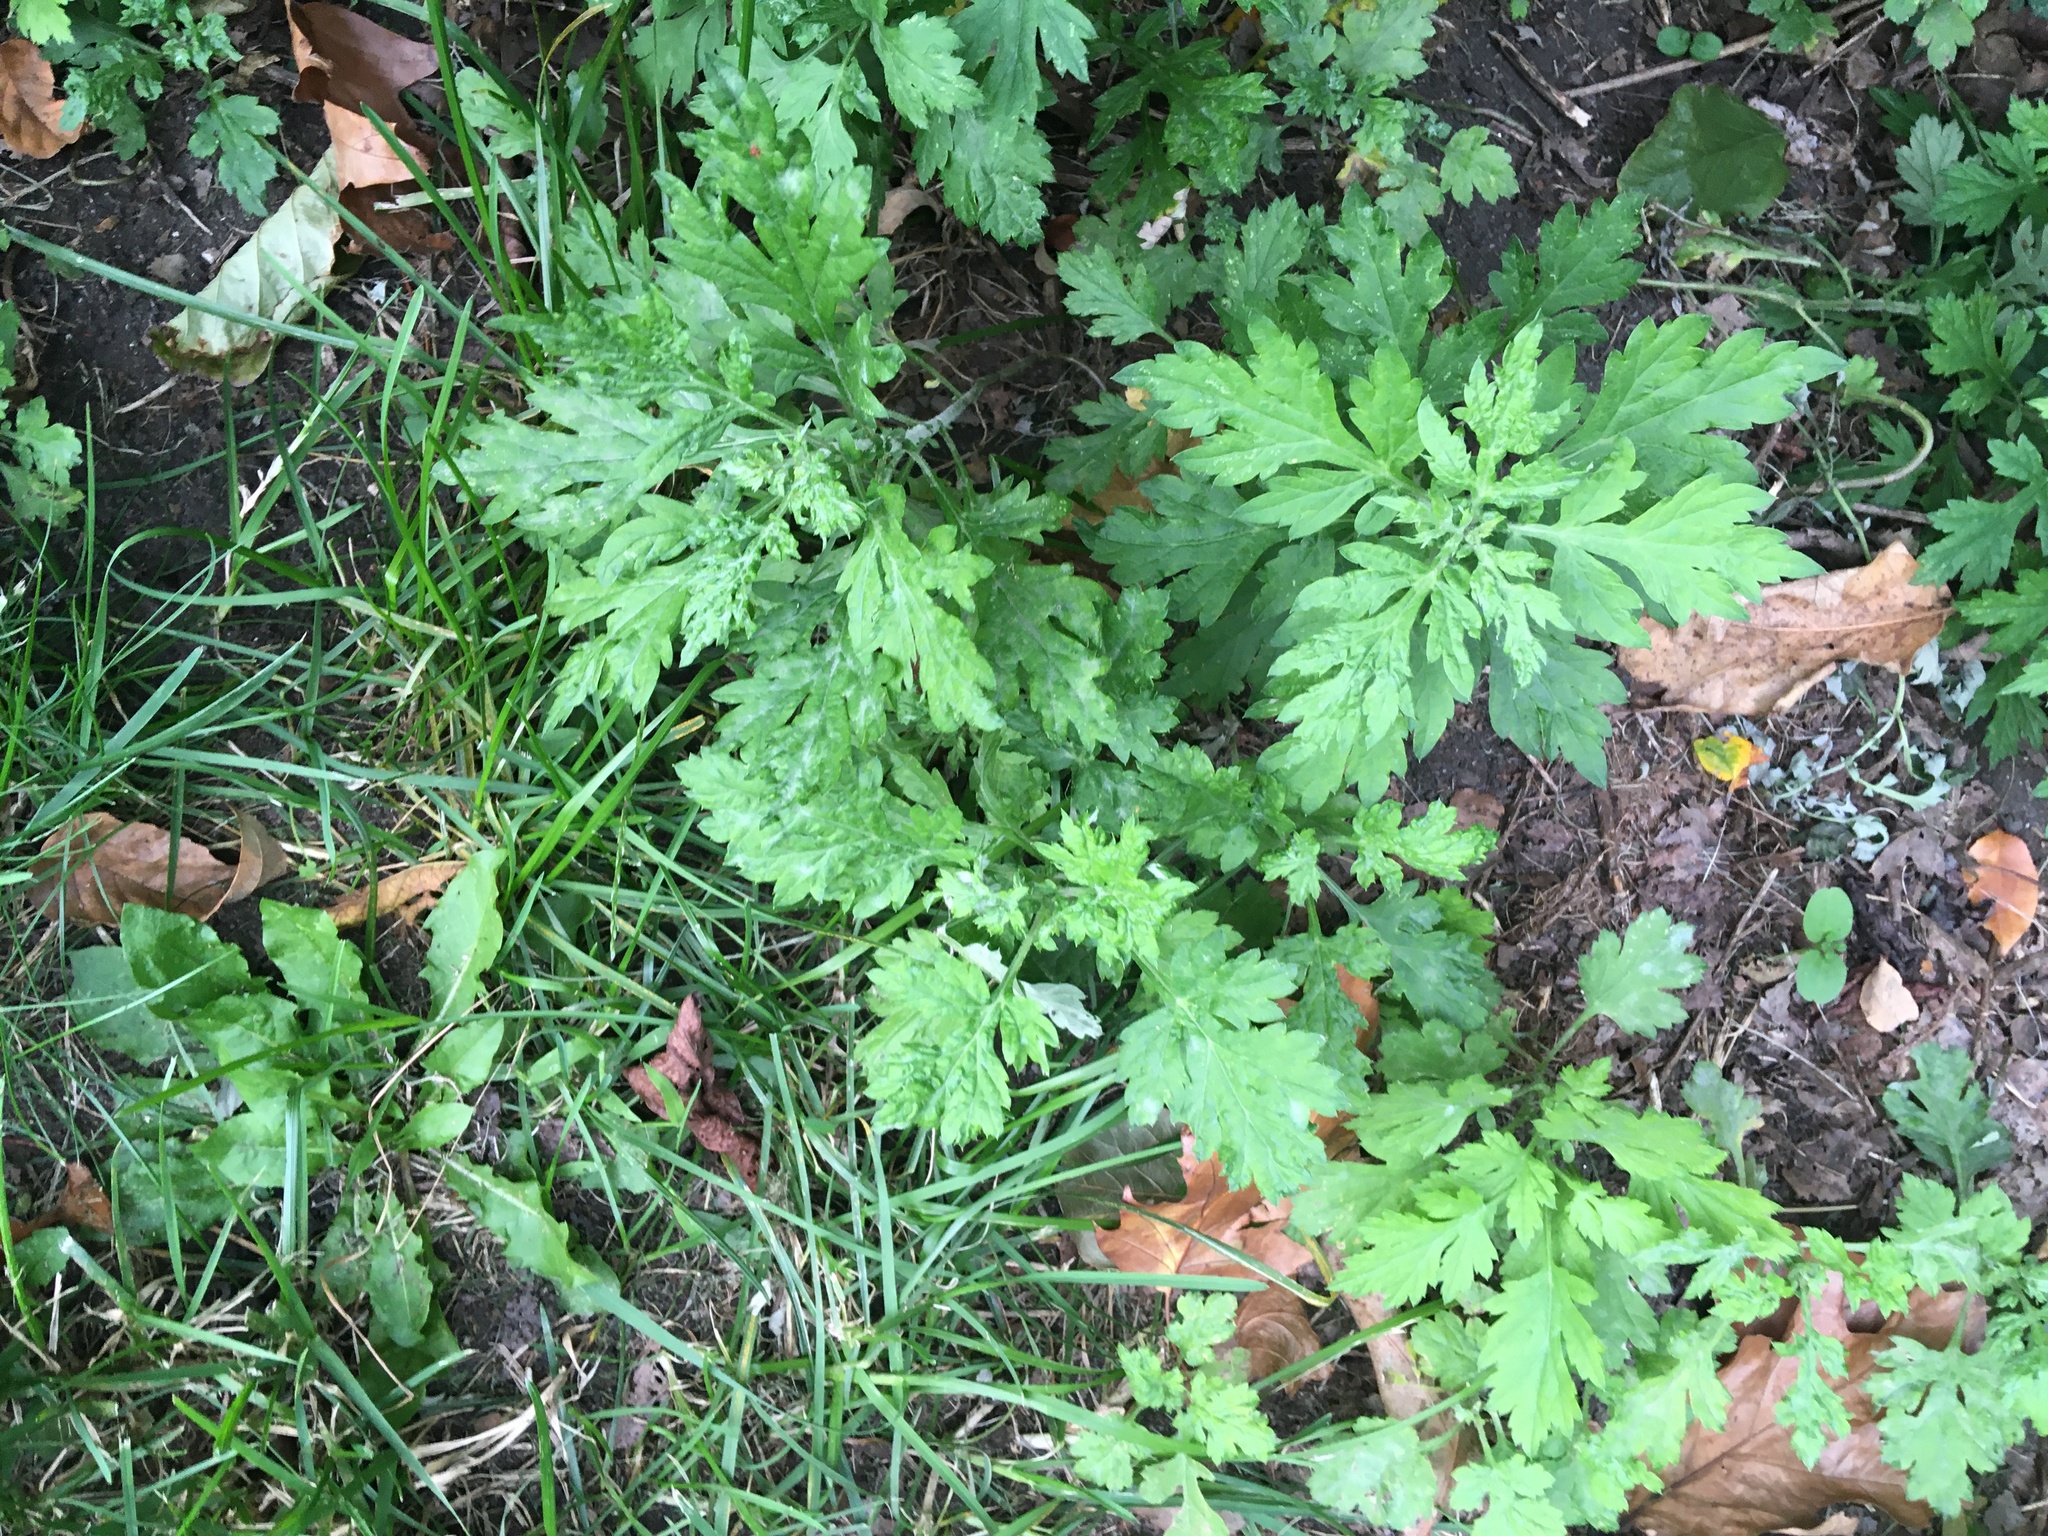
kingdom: Plantae
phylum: Tracheophyta
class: Magnoliopsida
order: Asterales
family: Asteraceae
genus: Artemisia
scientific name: Artemisia vulgaris
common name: Mugwort
